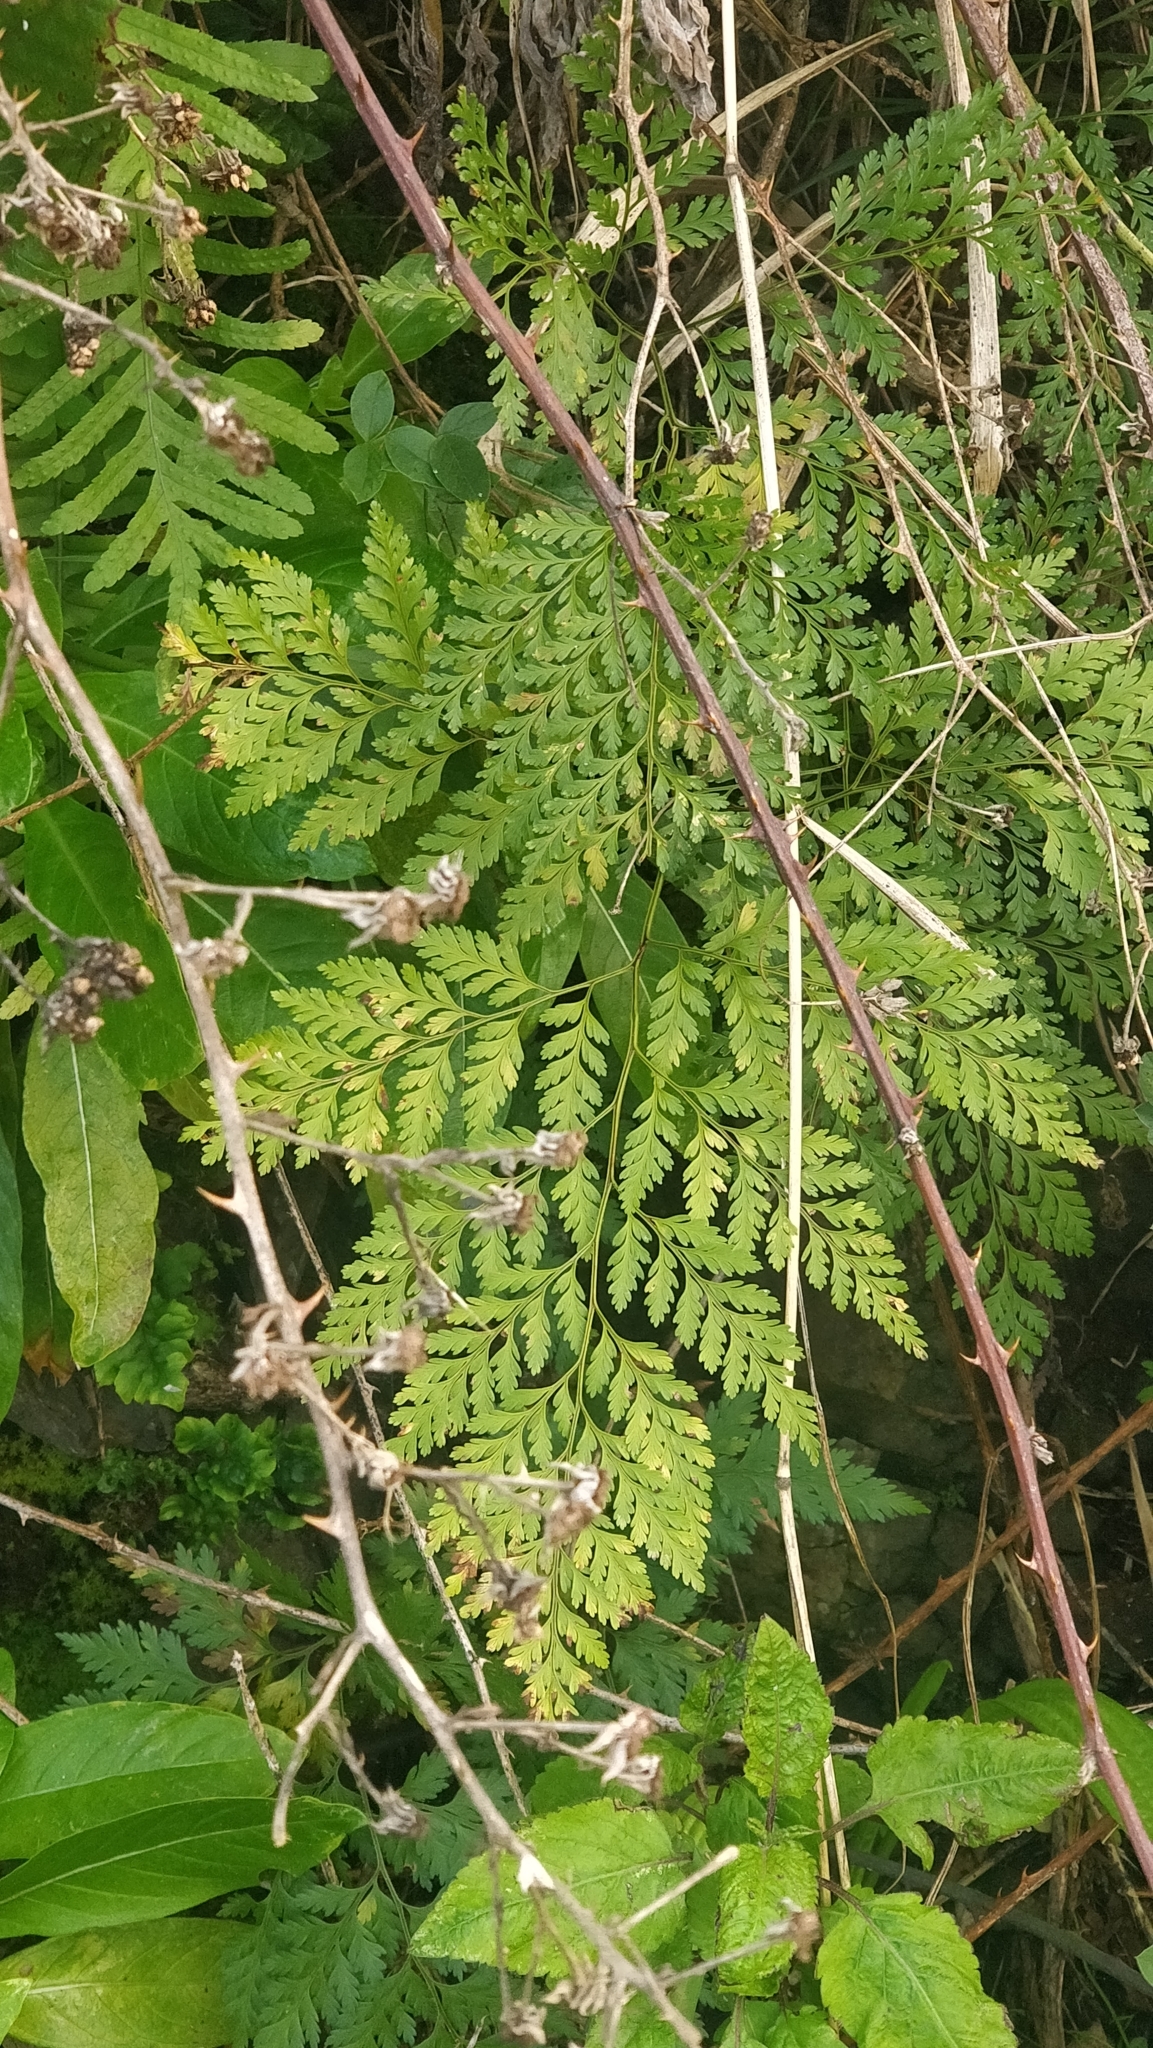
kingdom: Plantae
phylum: Tracheophyta
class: Polypodiopsida
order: Polypodiales
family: Davalliaceae
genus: Davallia
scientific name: Davallia canariensis
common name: Hare's-foot fern
